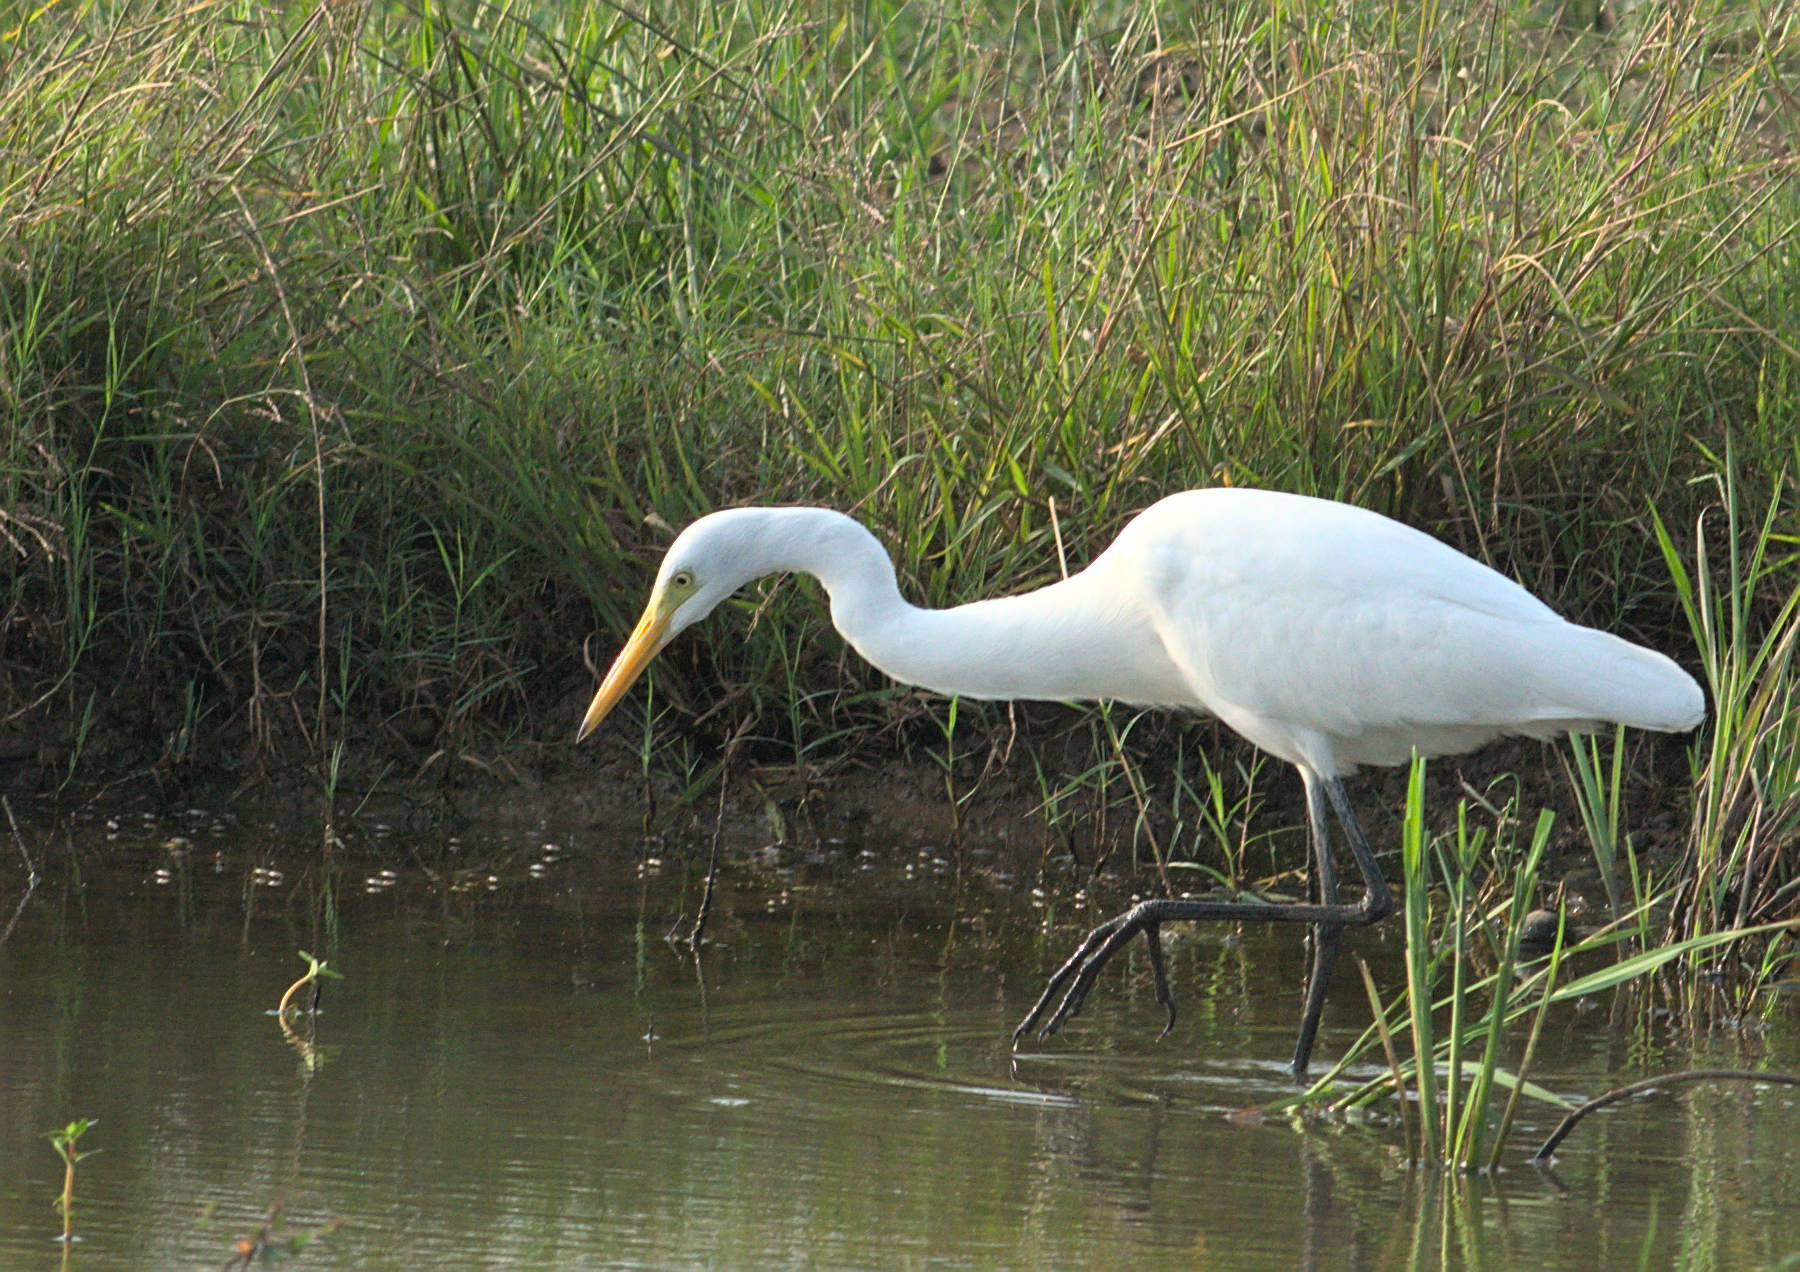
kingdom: Animalia
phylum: Chordata
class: Aves
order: Pelecaniformes
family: Ardeidae
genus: Egretta
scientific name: Egretta intermedia
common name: Intermediate egret
